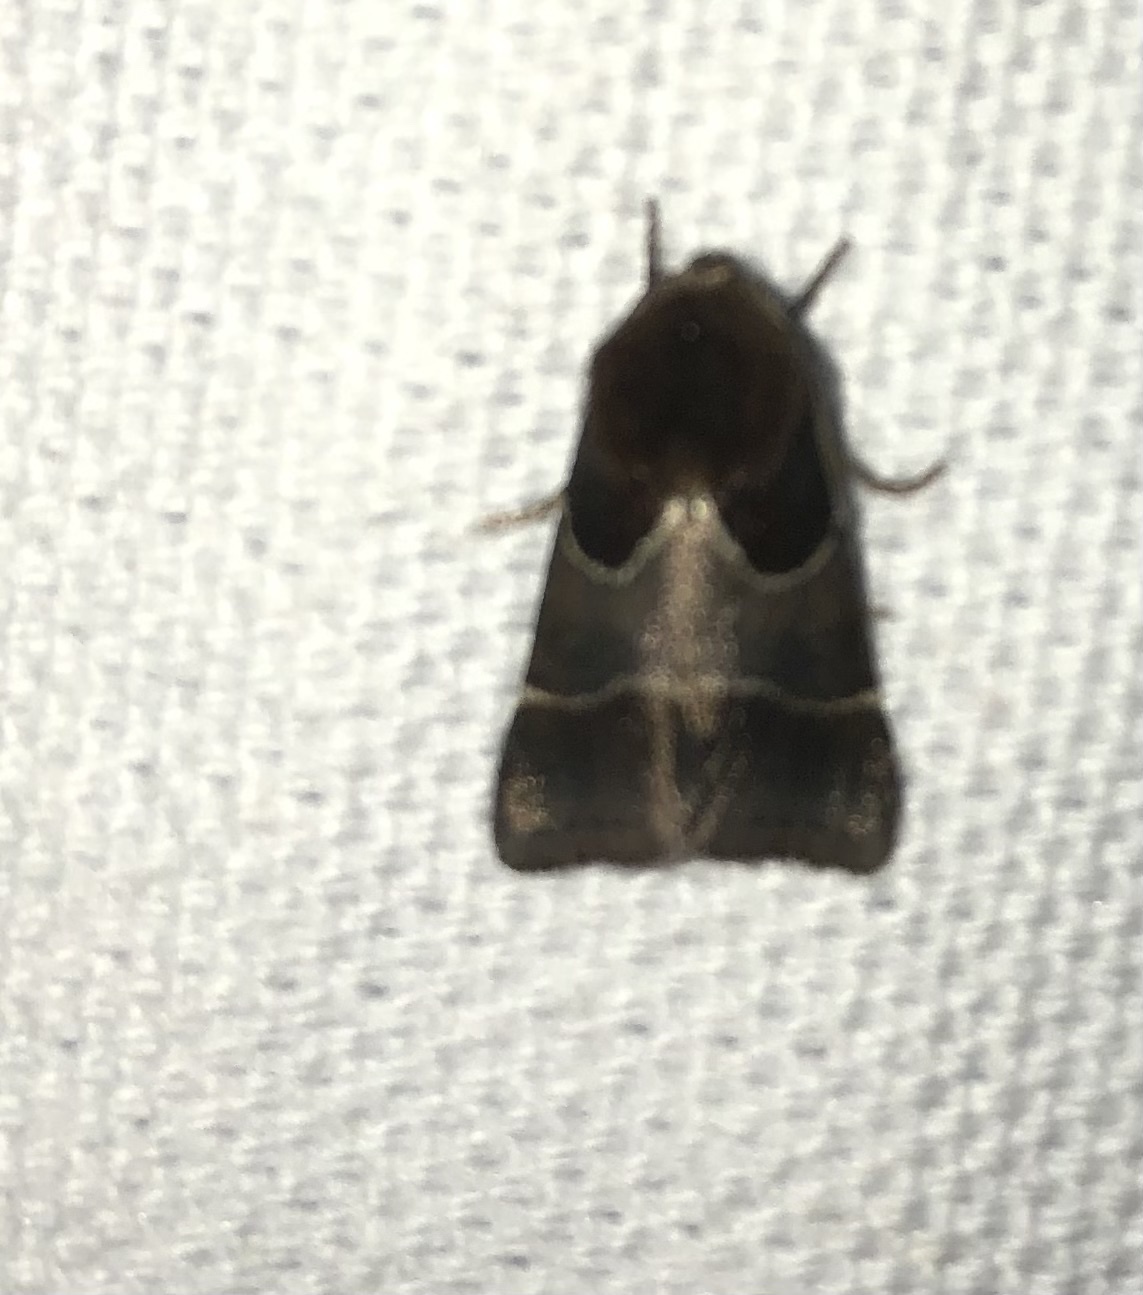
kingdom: Animalia
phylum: Arthropoda
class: Insecta
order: Lepidoptera
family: Noctuidae
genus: Schinia
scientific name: Schinia arcigera
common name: Arcigera flower moth
